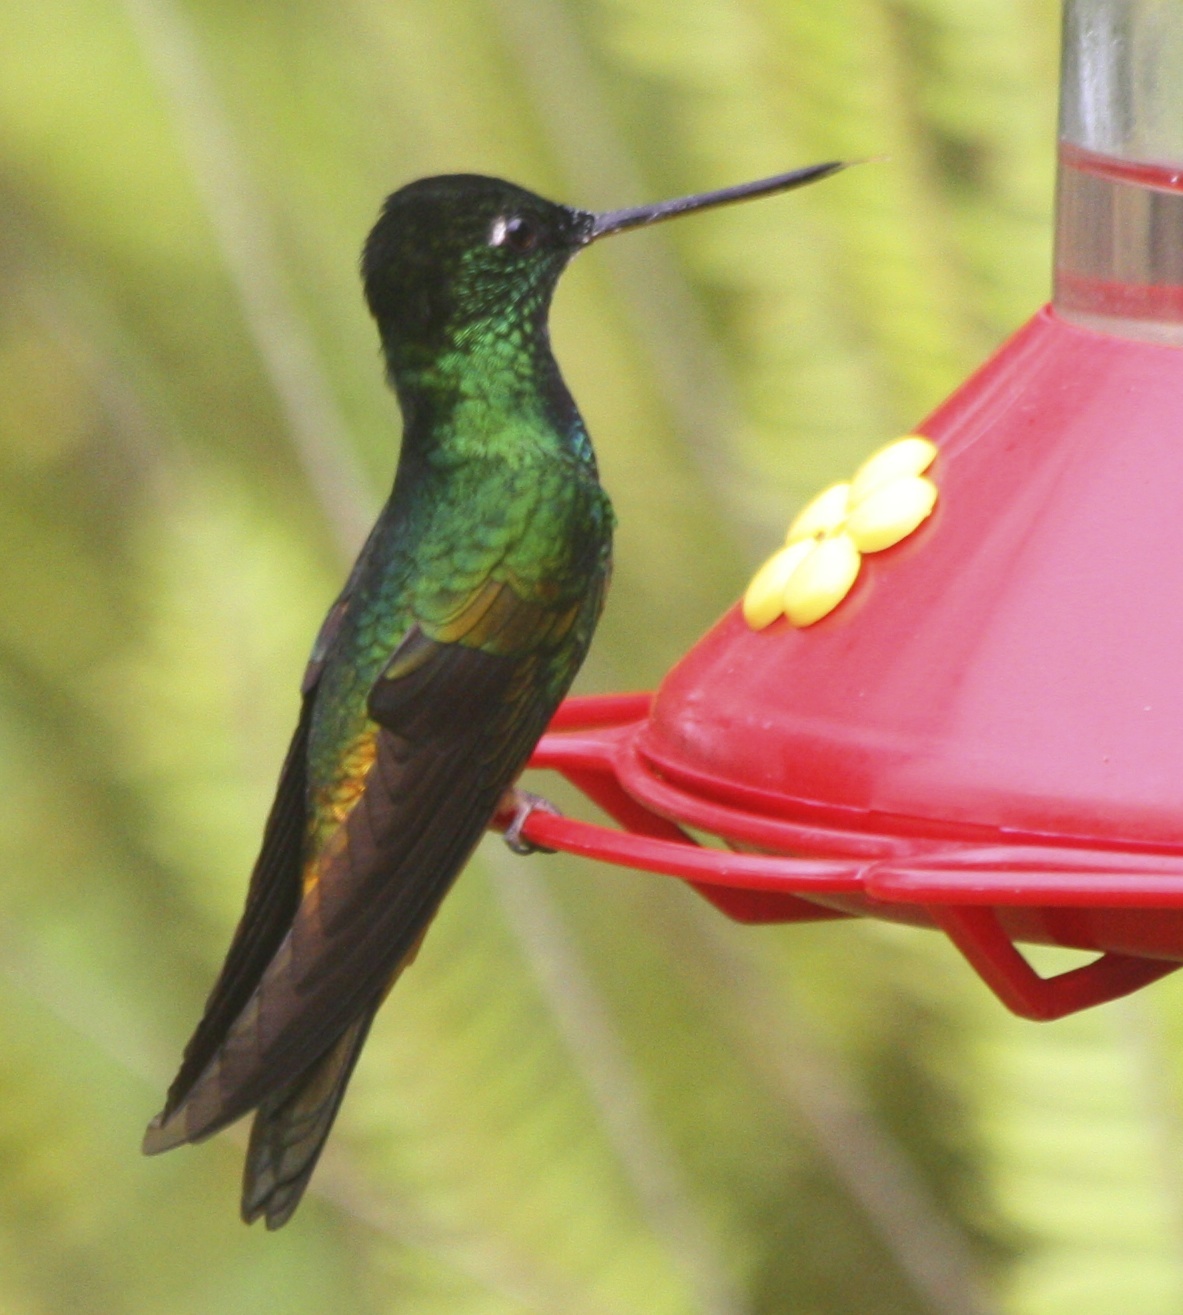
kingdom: Animalia
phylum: Chordata
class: Aves
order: Apodiformes
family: Trochilidae
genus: Coeligena
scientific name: Coeligena bonapartei
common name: Golden-bellied starfrontlet
